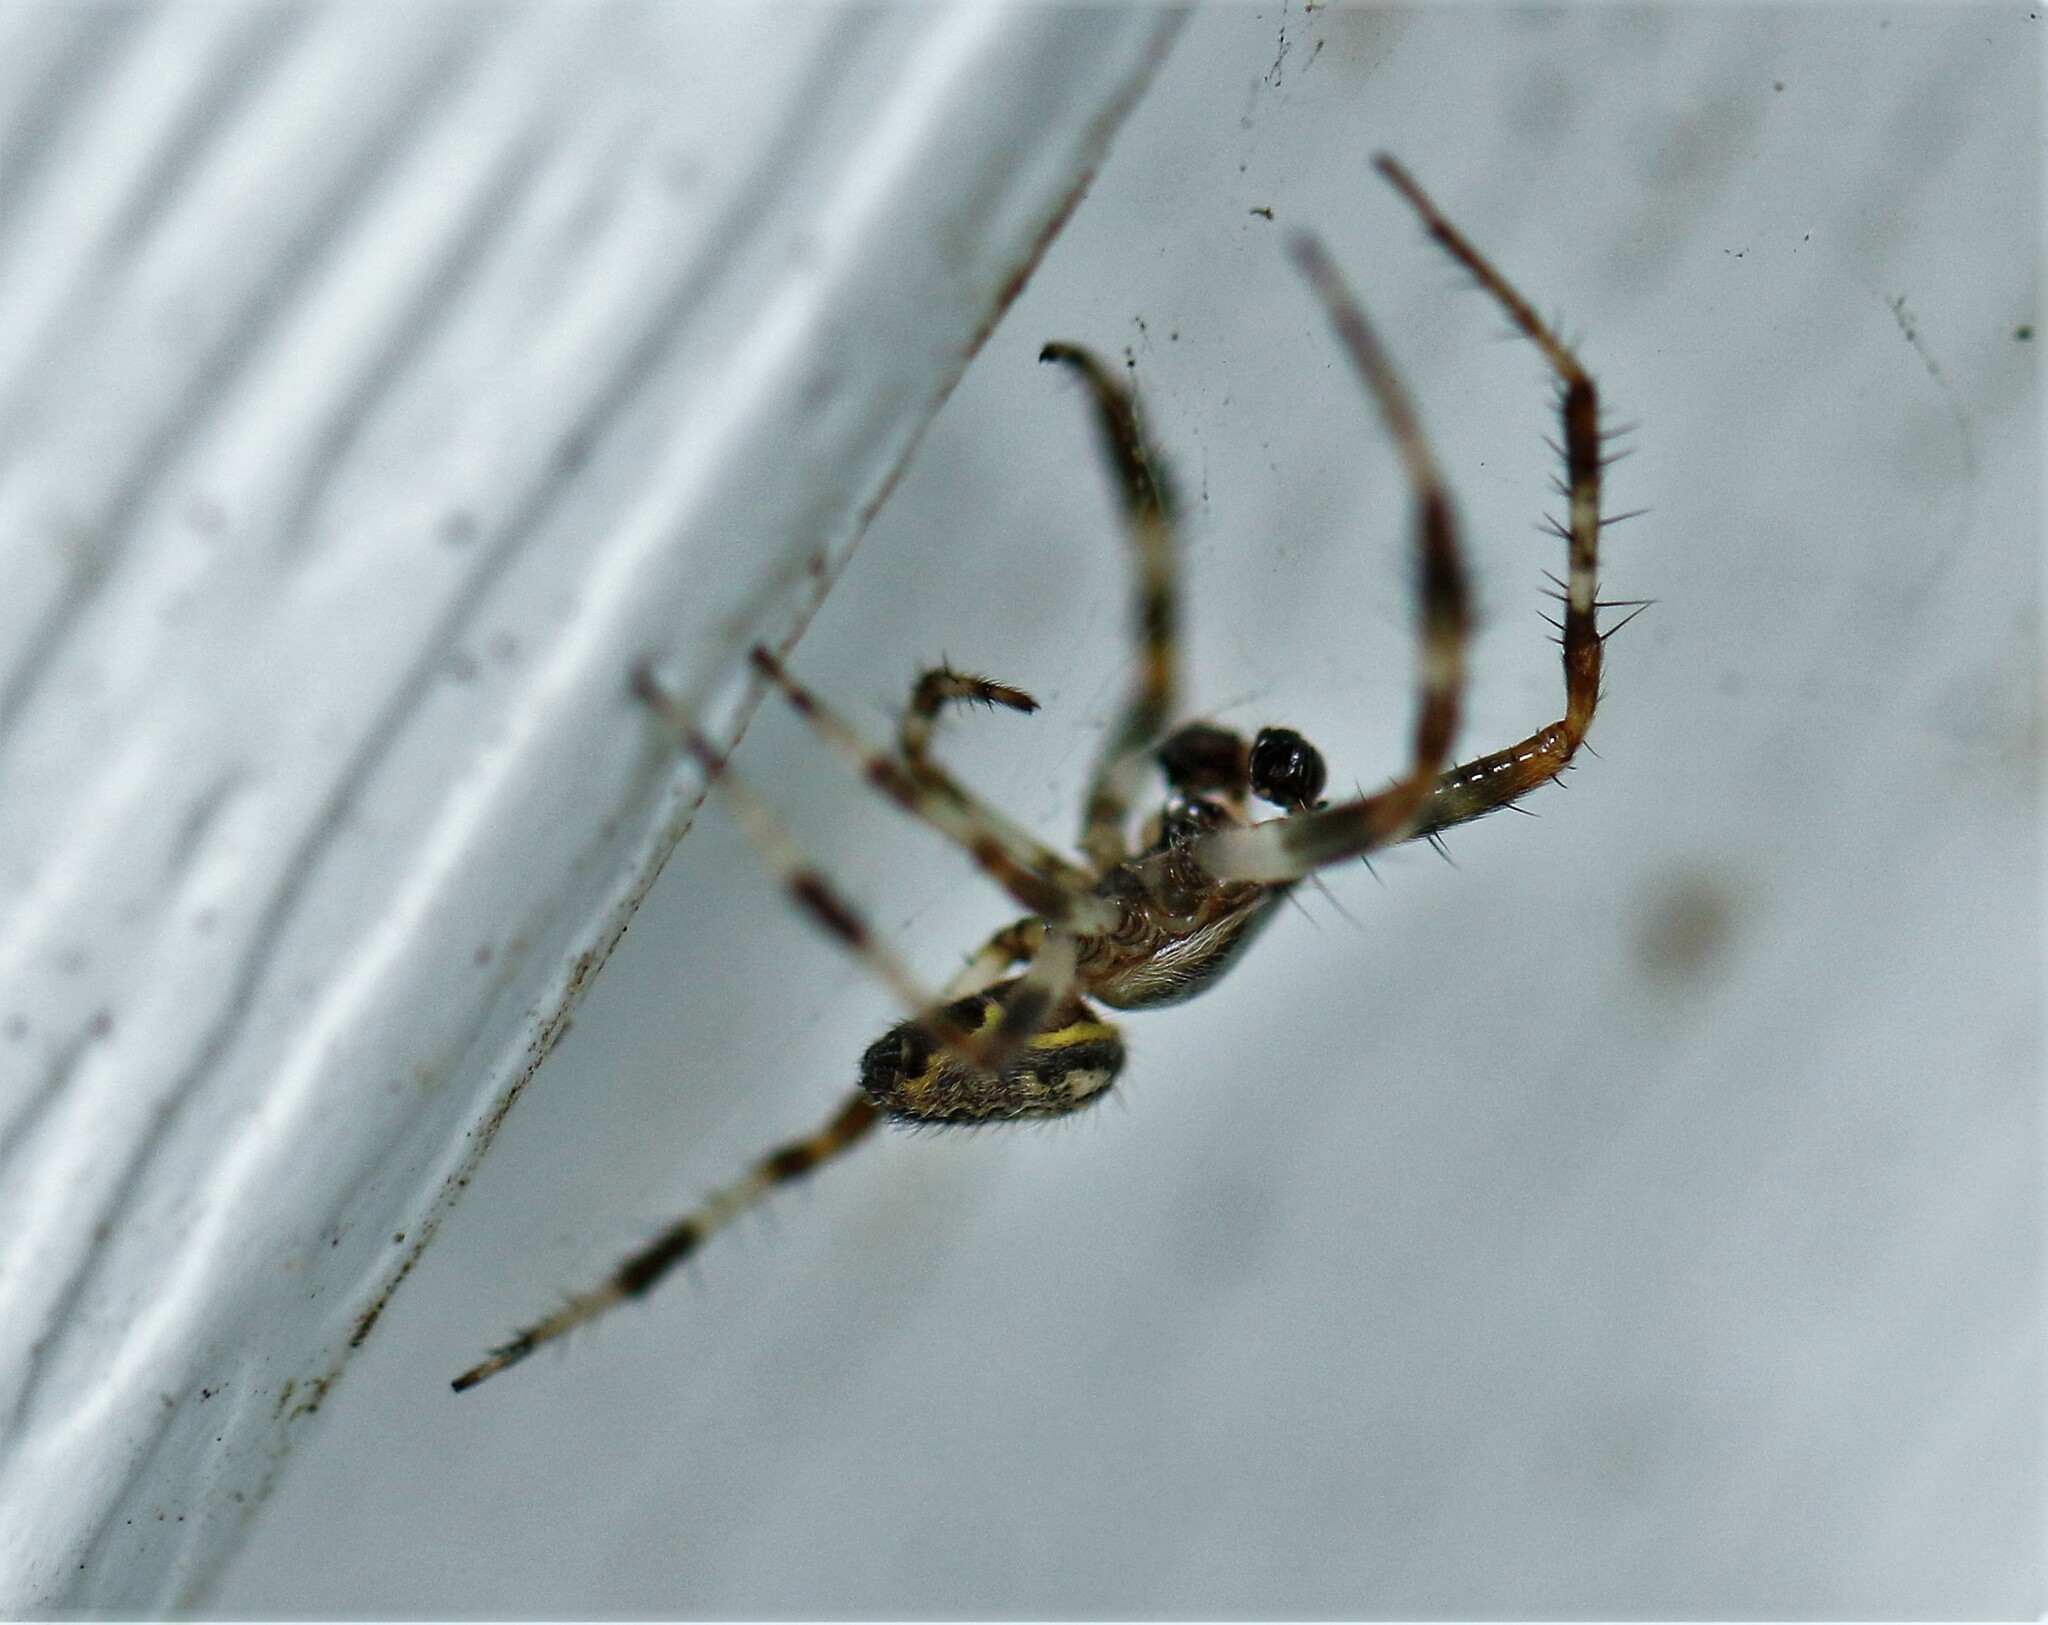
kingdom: Animalia
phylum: Arthropoda
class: Arachnida
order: Araneae
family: Araneidae
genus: Araneus
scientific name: Araneus marmoreus
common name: Marbled orbweaver
